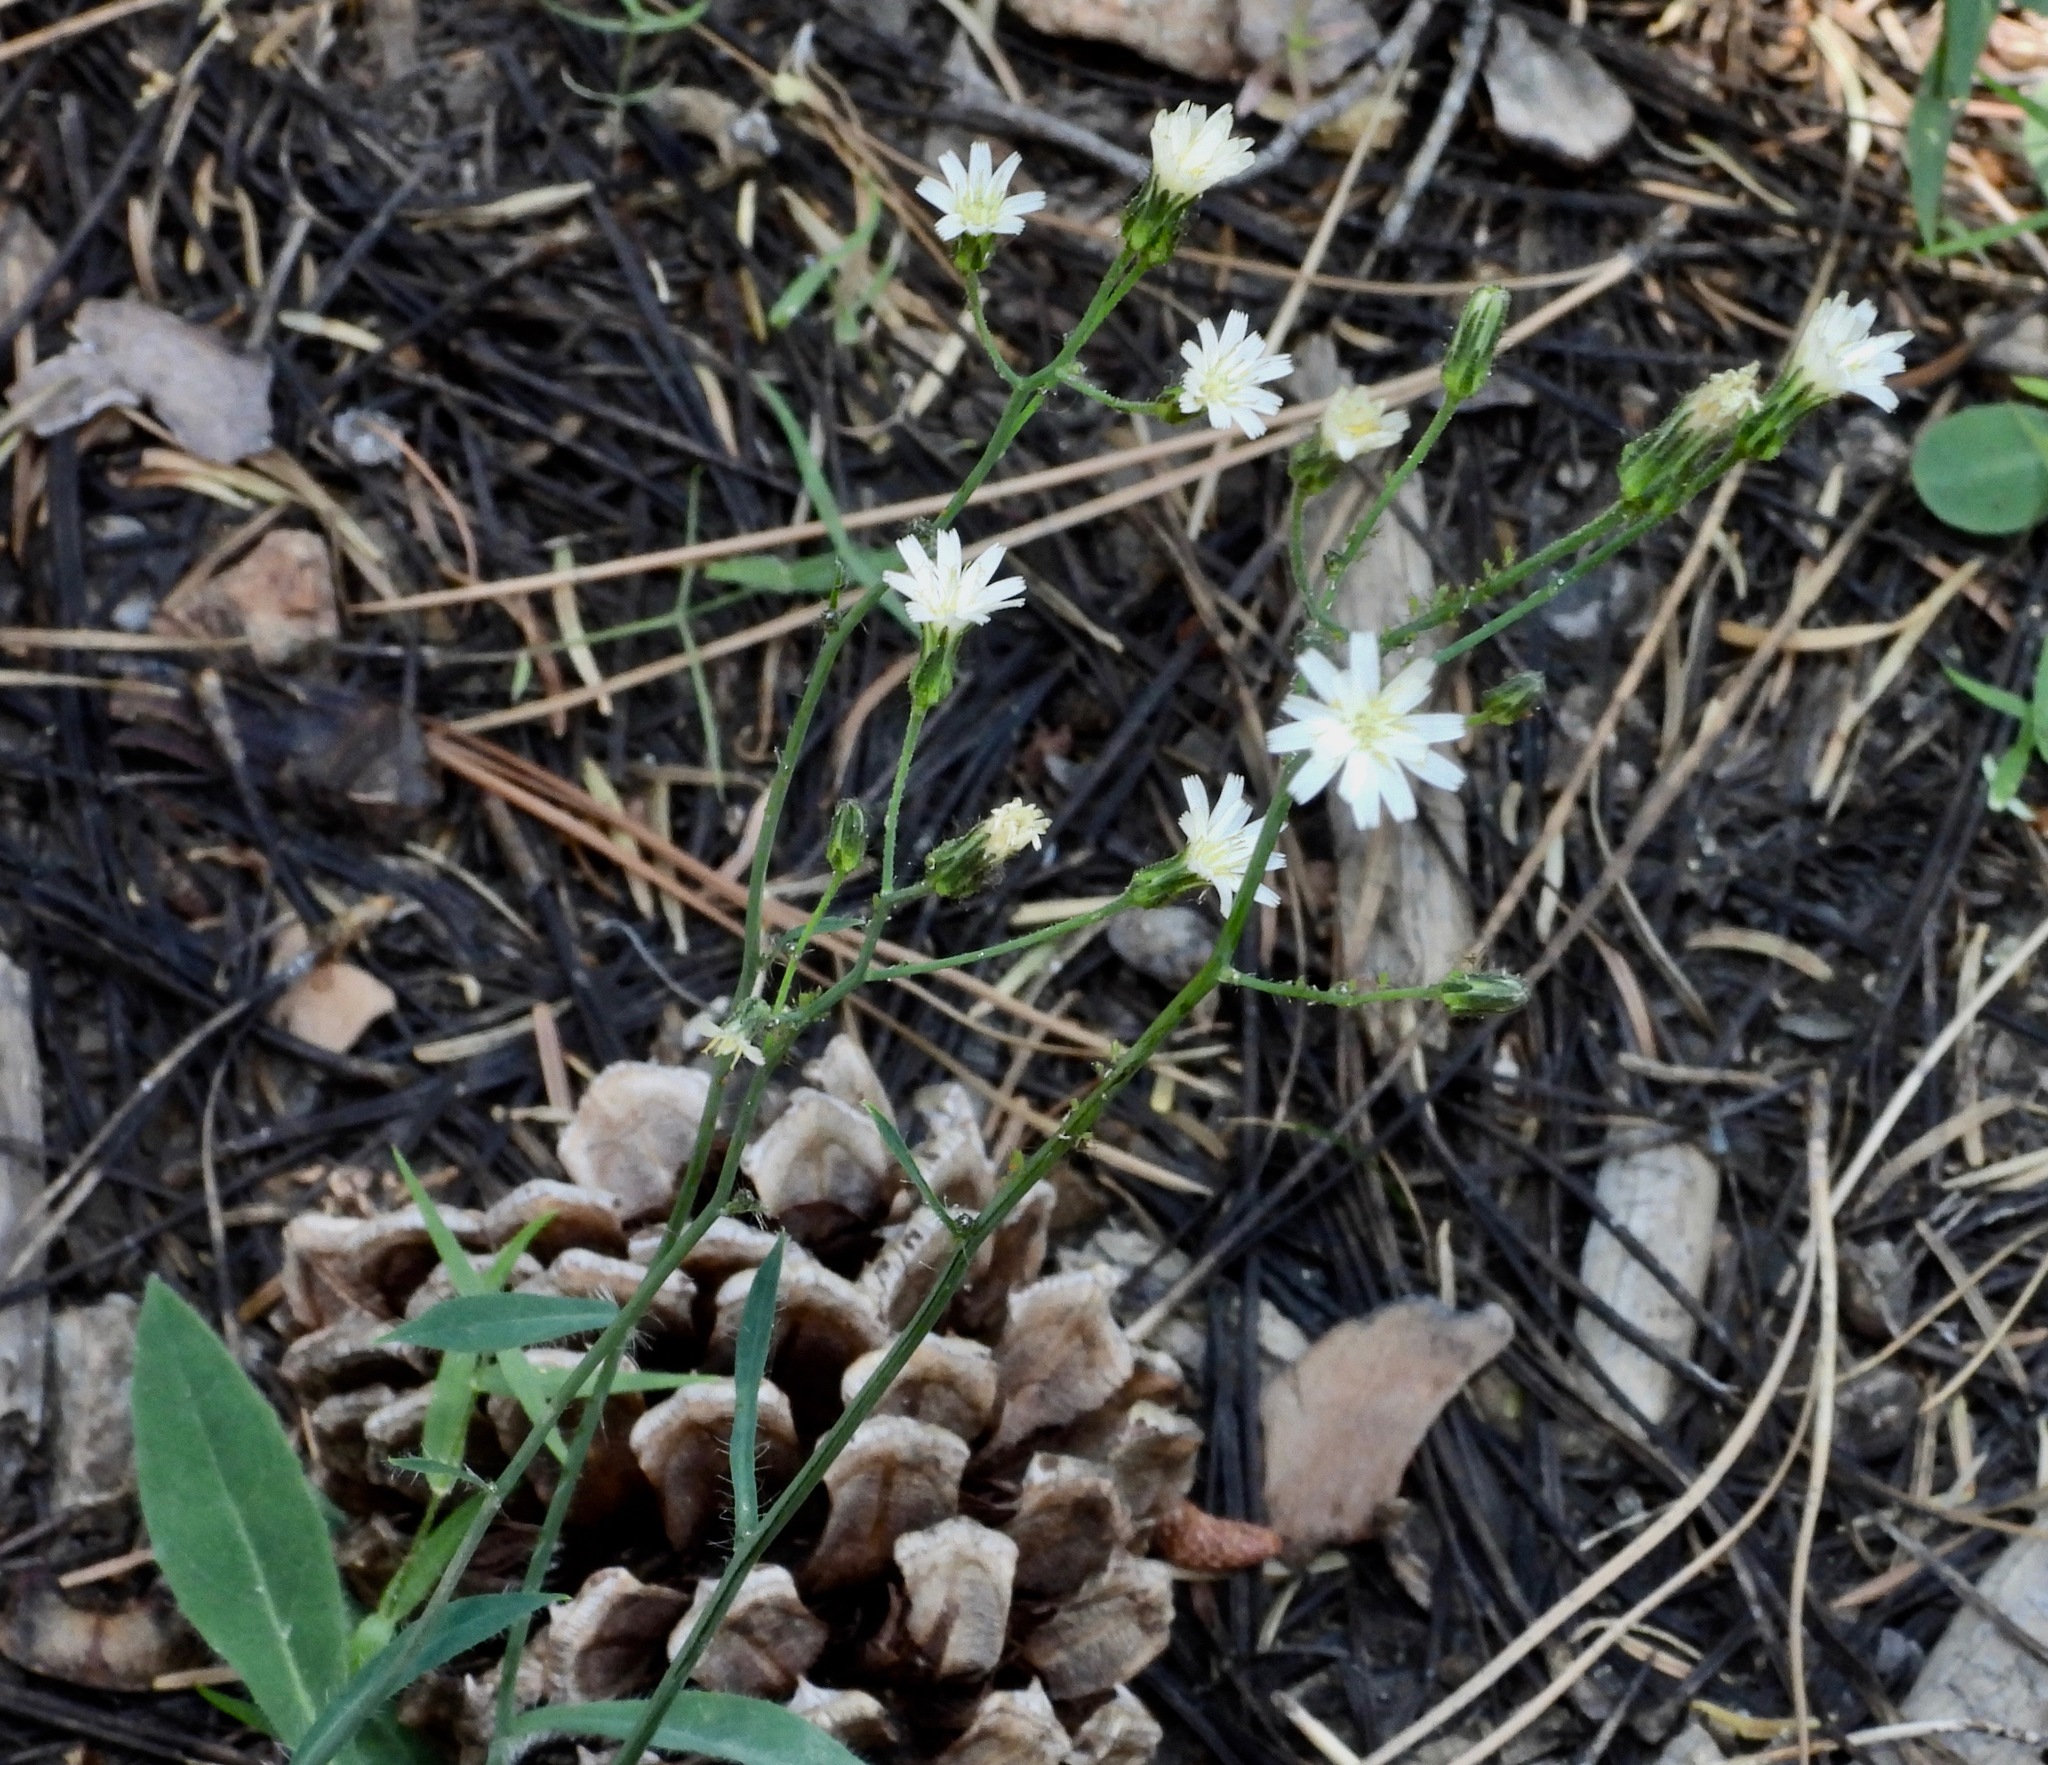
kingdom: Plantae
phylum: Tracheophyta
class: Magnoliopsida
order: Asterales
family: Asteraceae
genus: Hieracium
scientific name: Hieracium albiflorum
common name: White hawkweed
